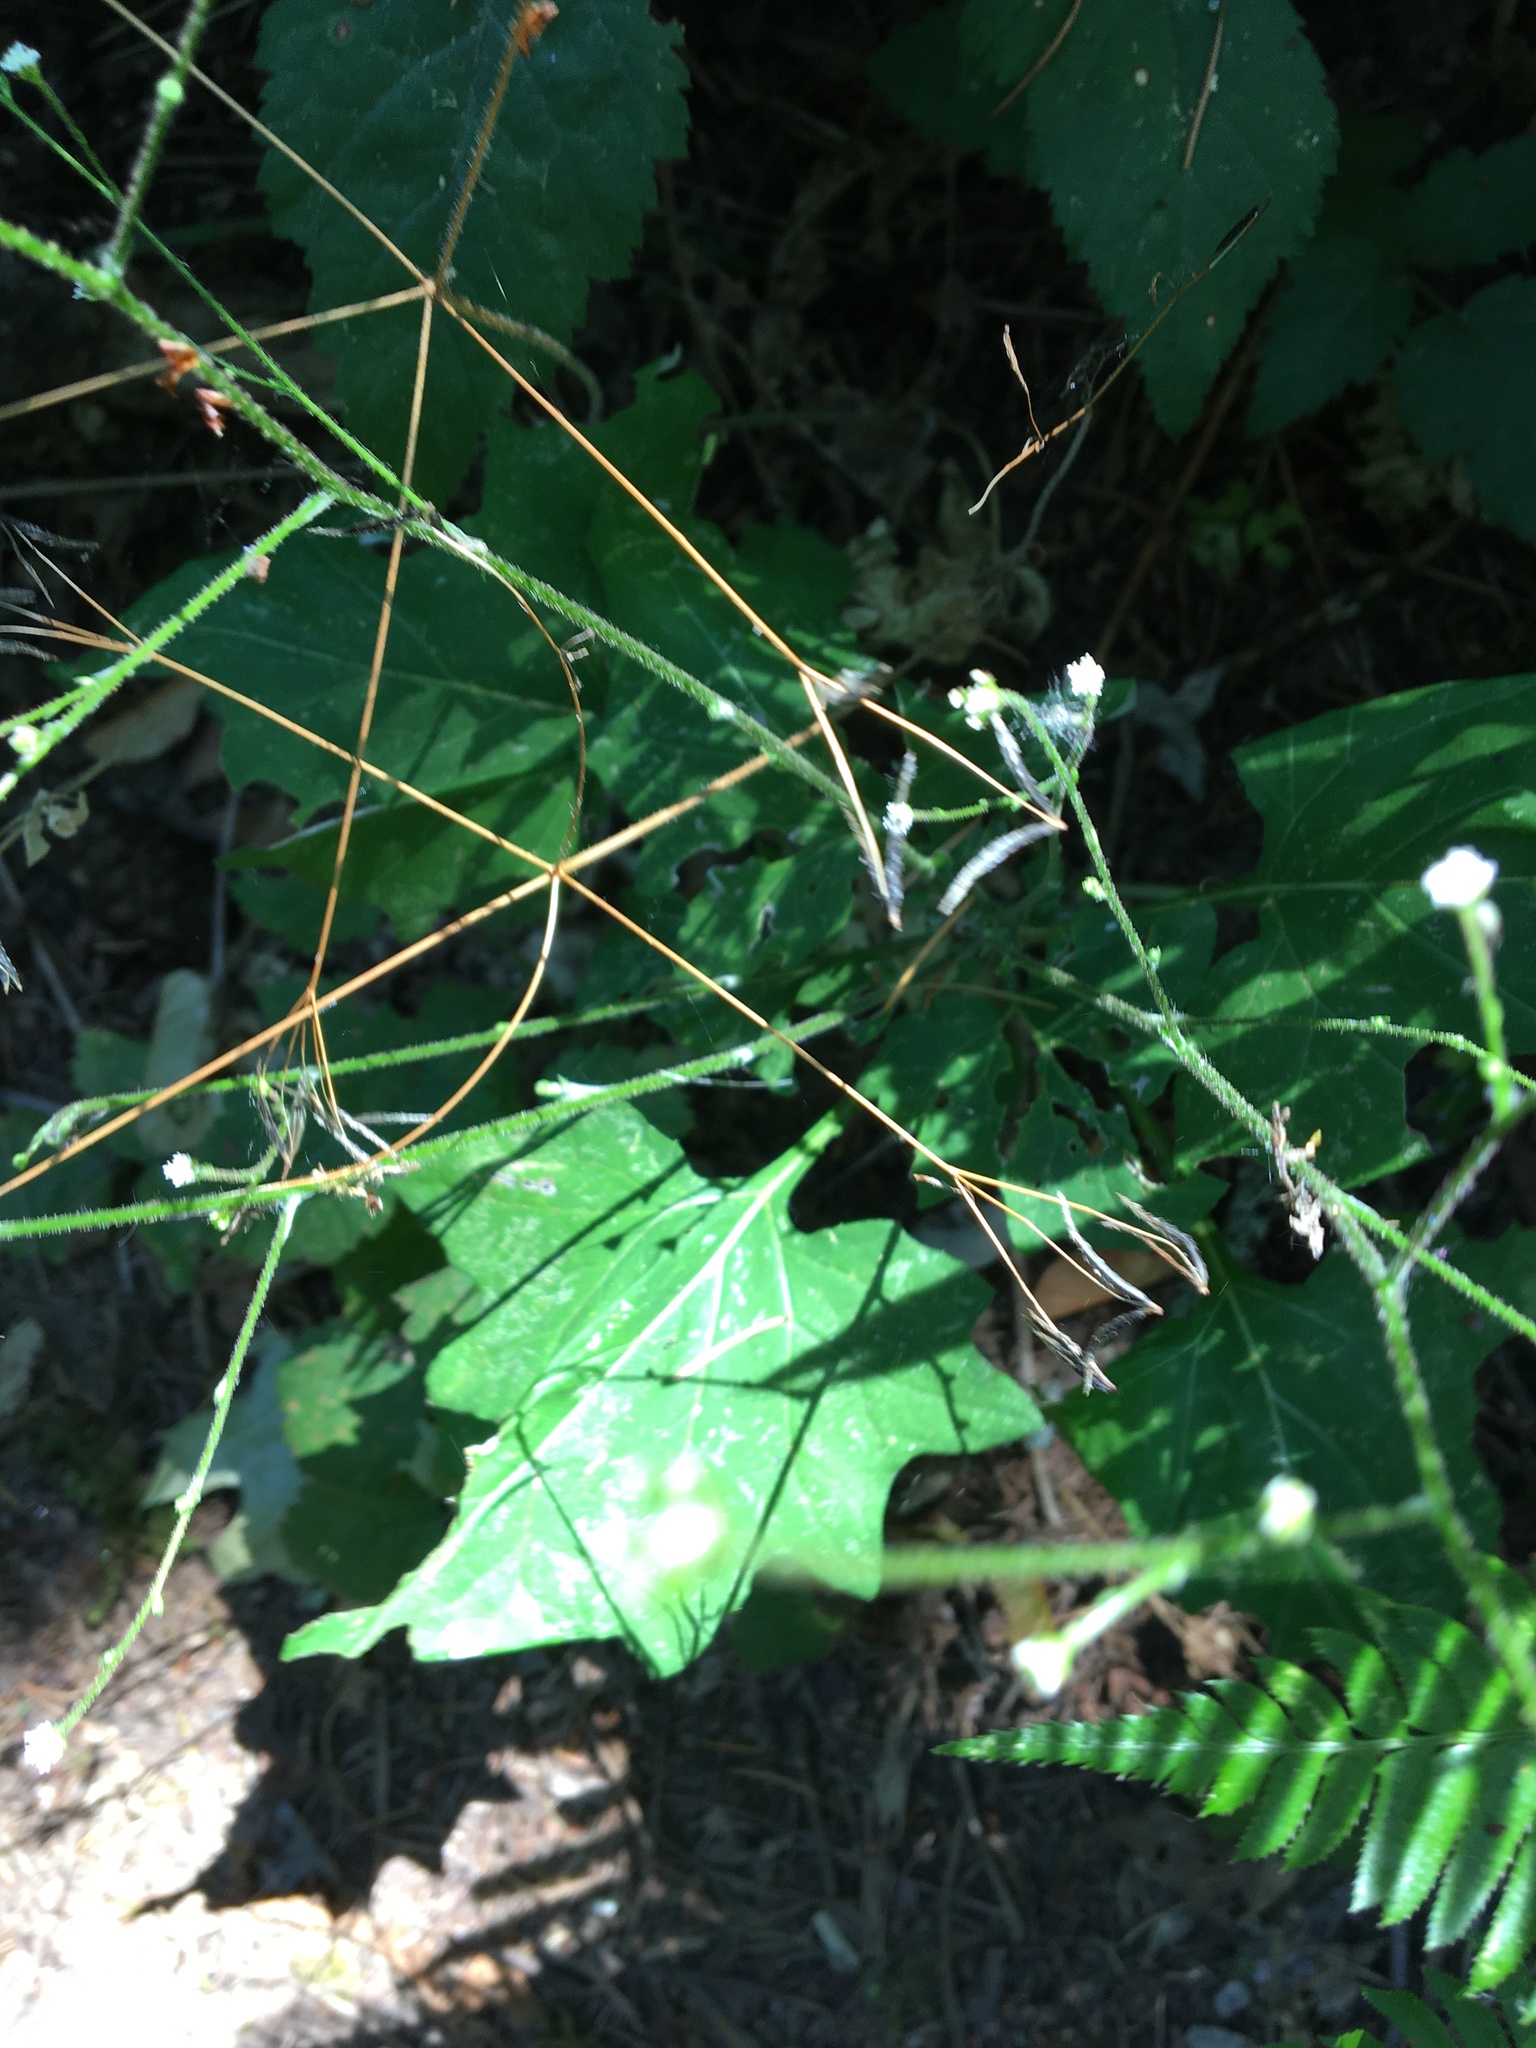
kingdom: Plantae
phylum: Tracheophyta
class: Magnoliopsida
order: Asterales
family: Asteraceae
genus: Adenocaulon
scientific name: Adenocaulon bicolor
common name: Trailplant
